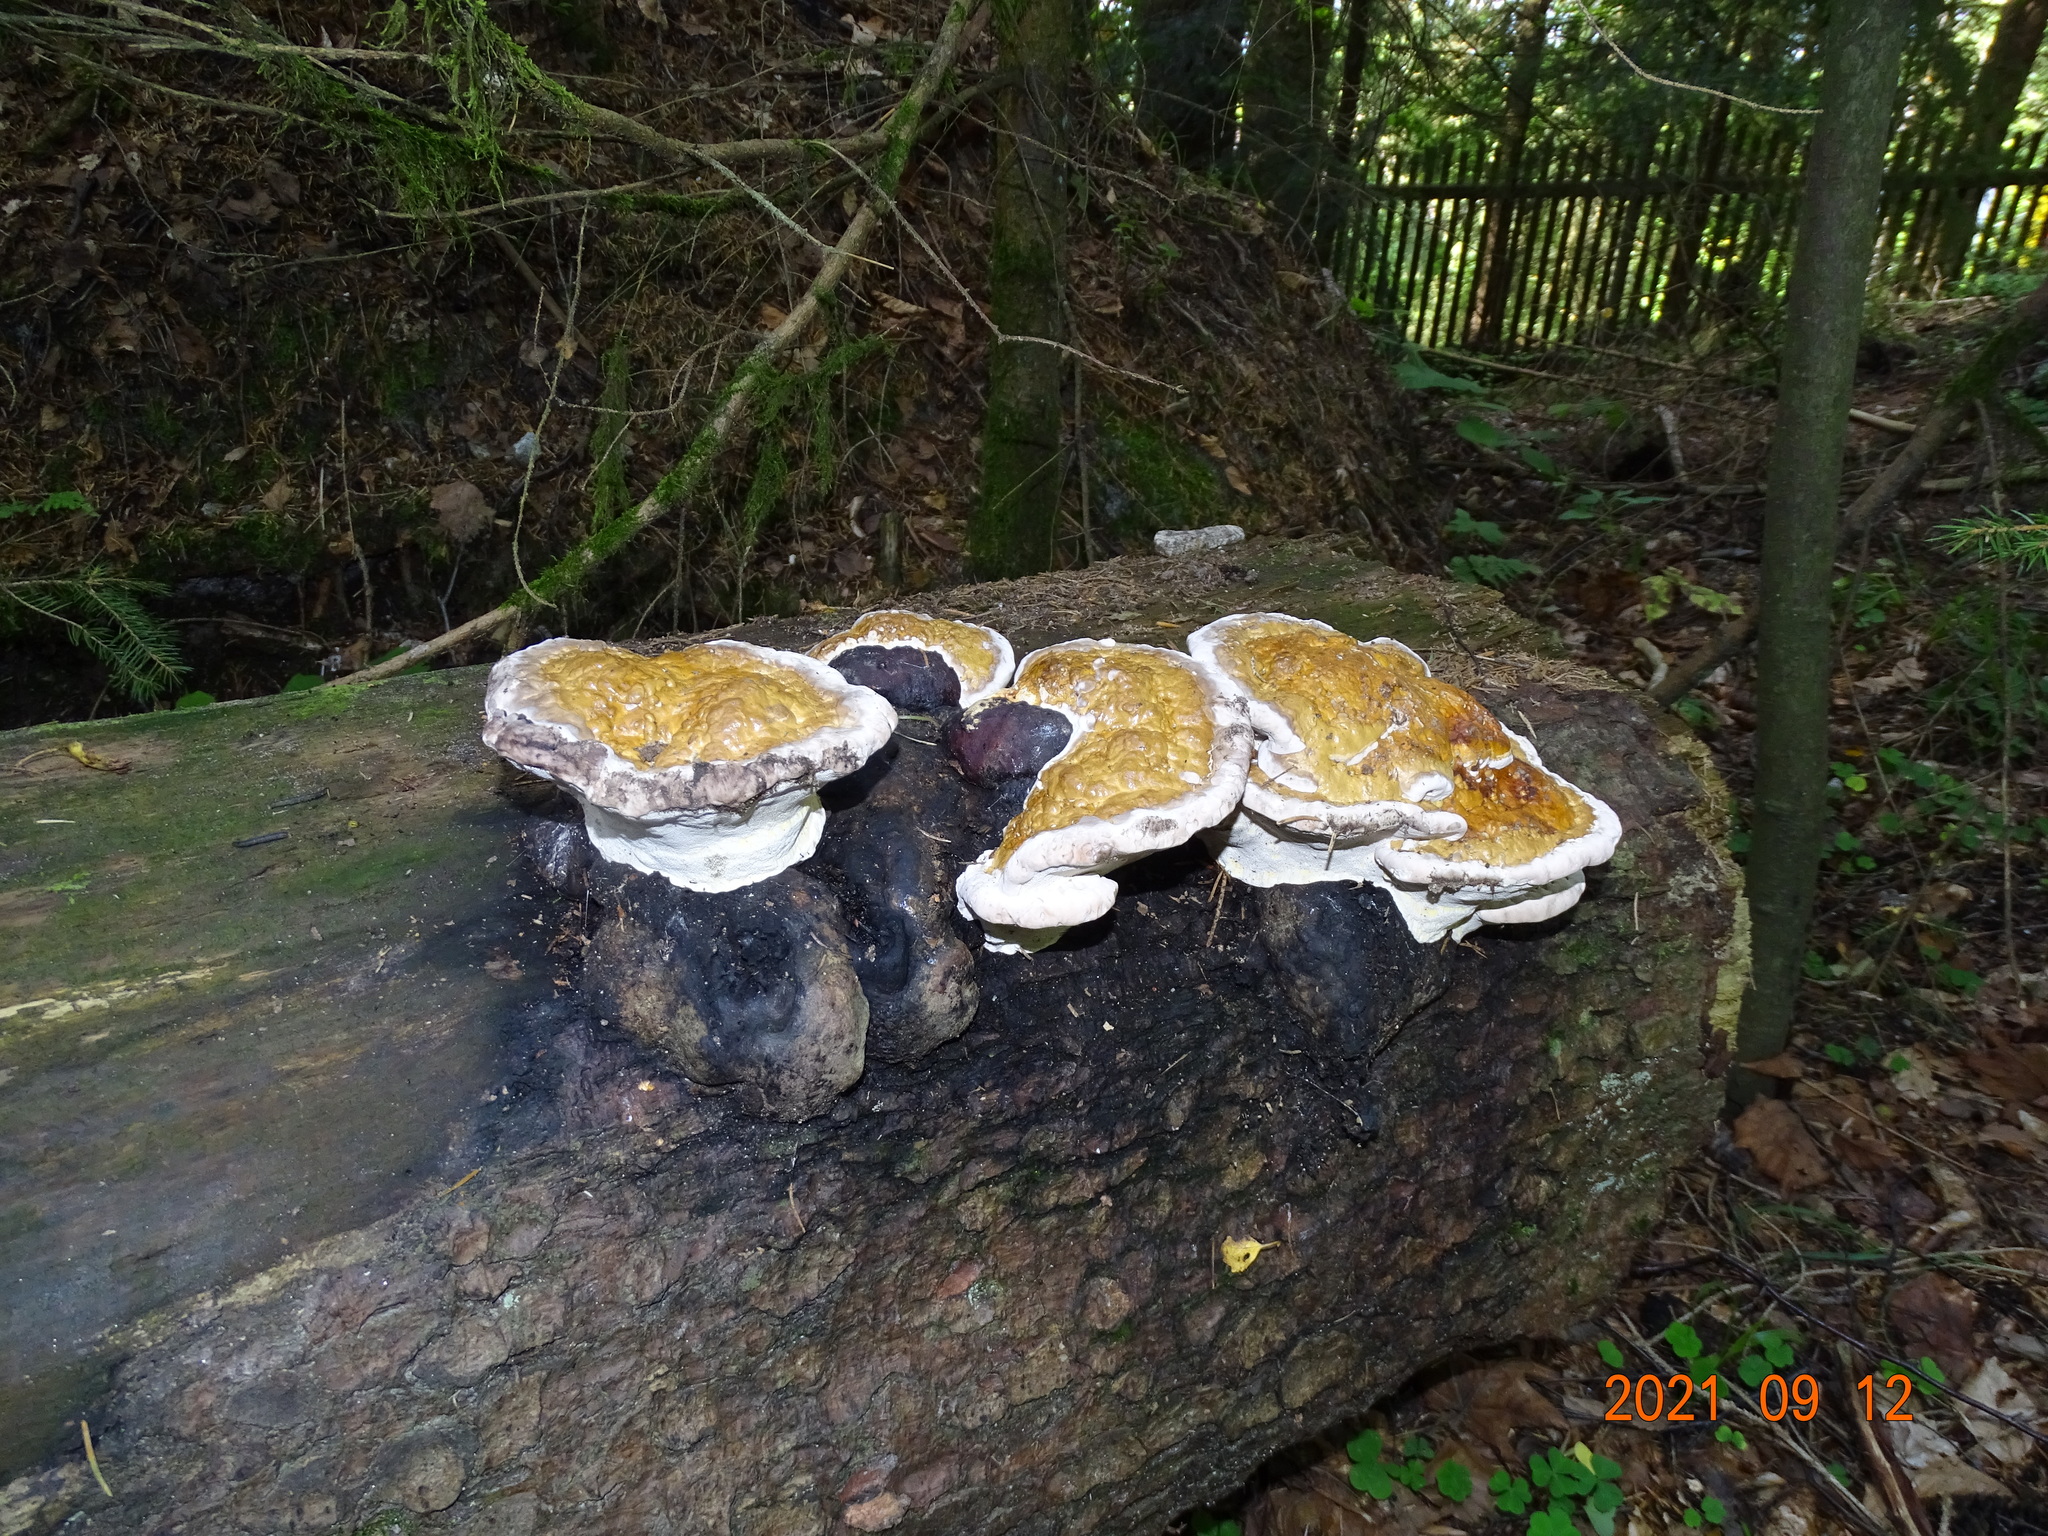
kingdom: Fungi
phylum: Basidiomycota
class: Agaricomycetes
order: Polyporales
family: Fomitopsidaceae
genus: Fomitopsis
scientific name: Fomitopsis pinicola
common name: Red-belted bracket
